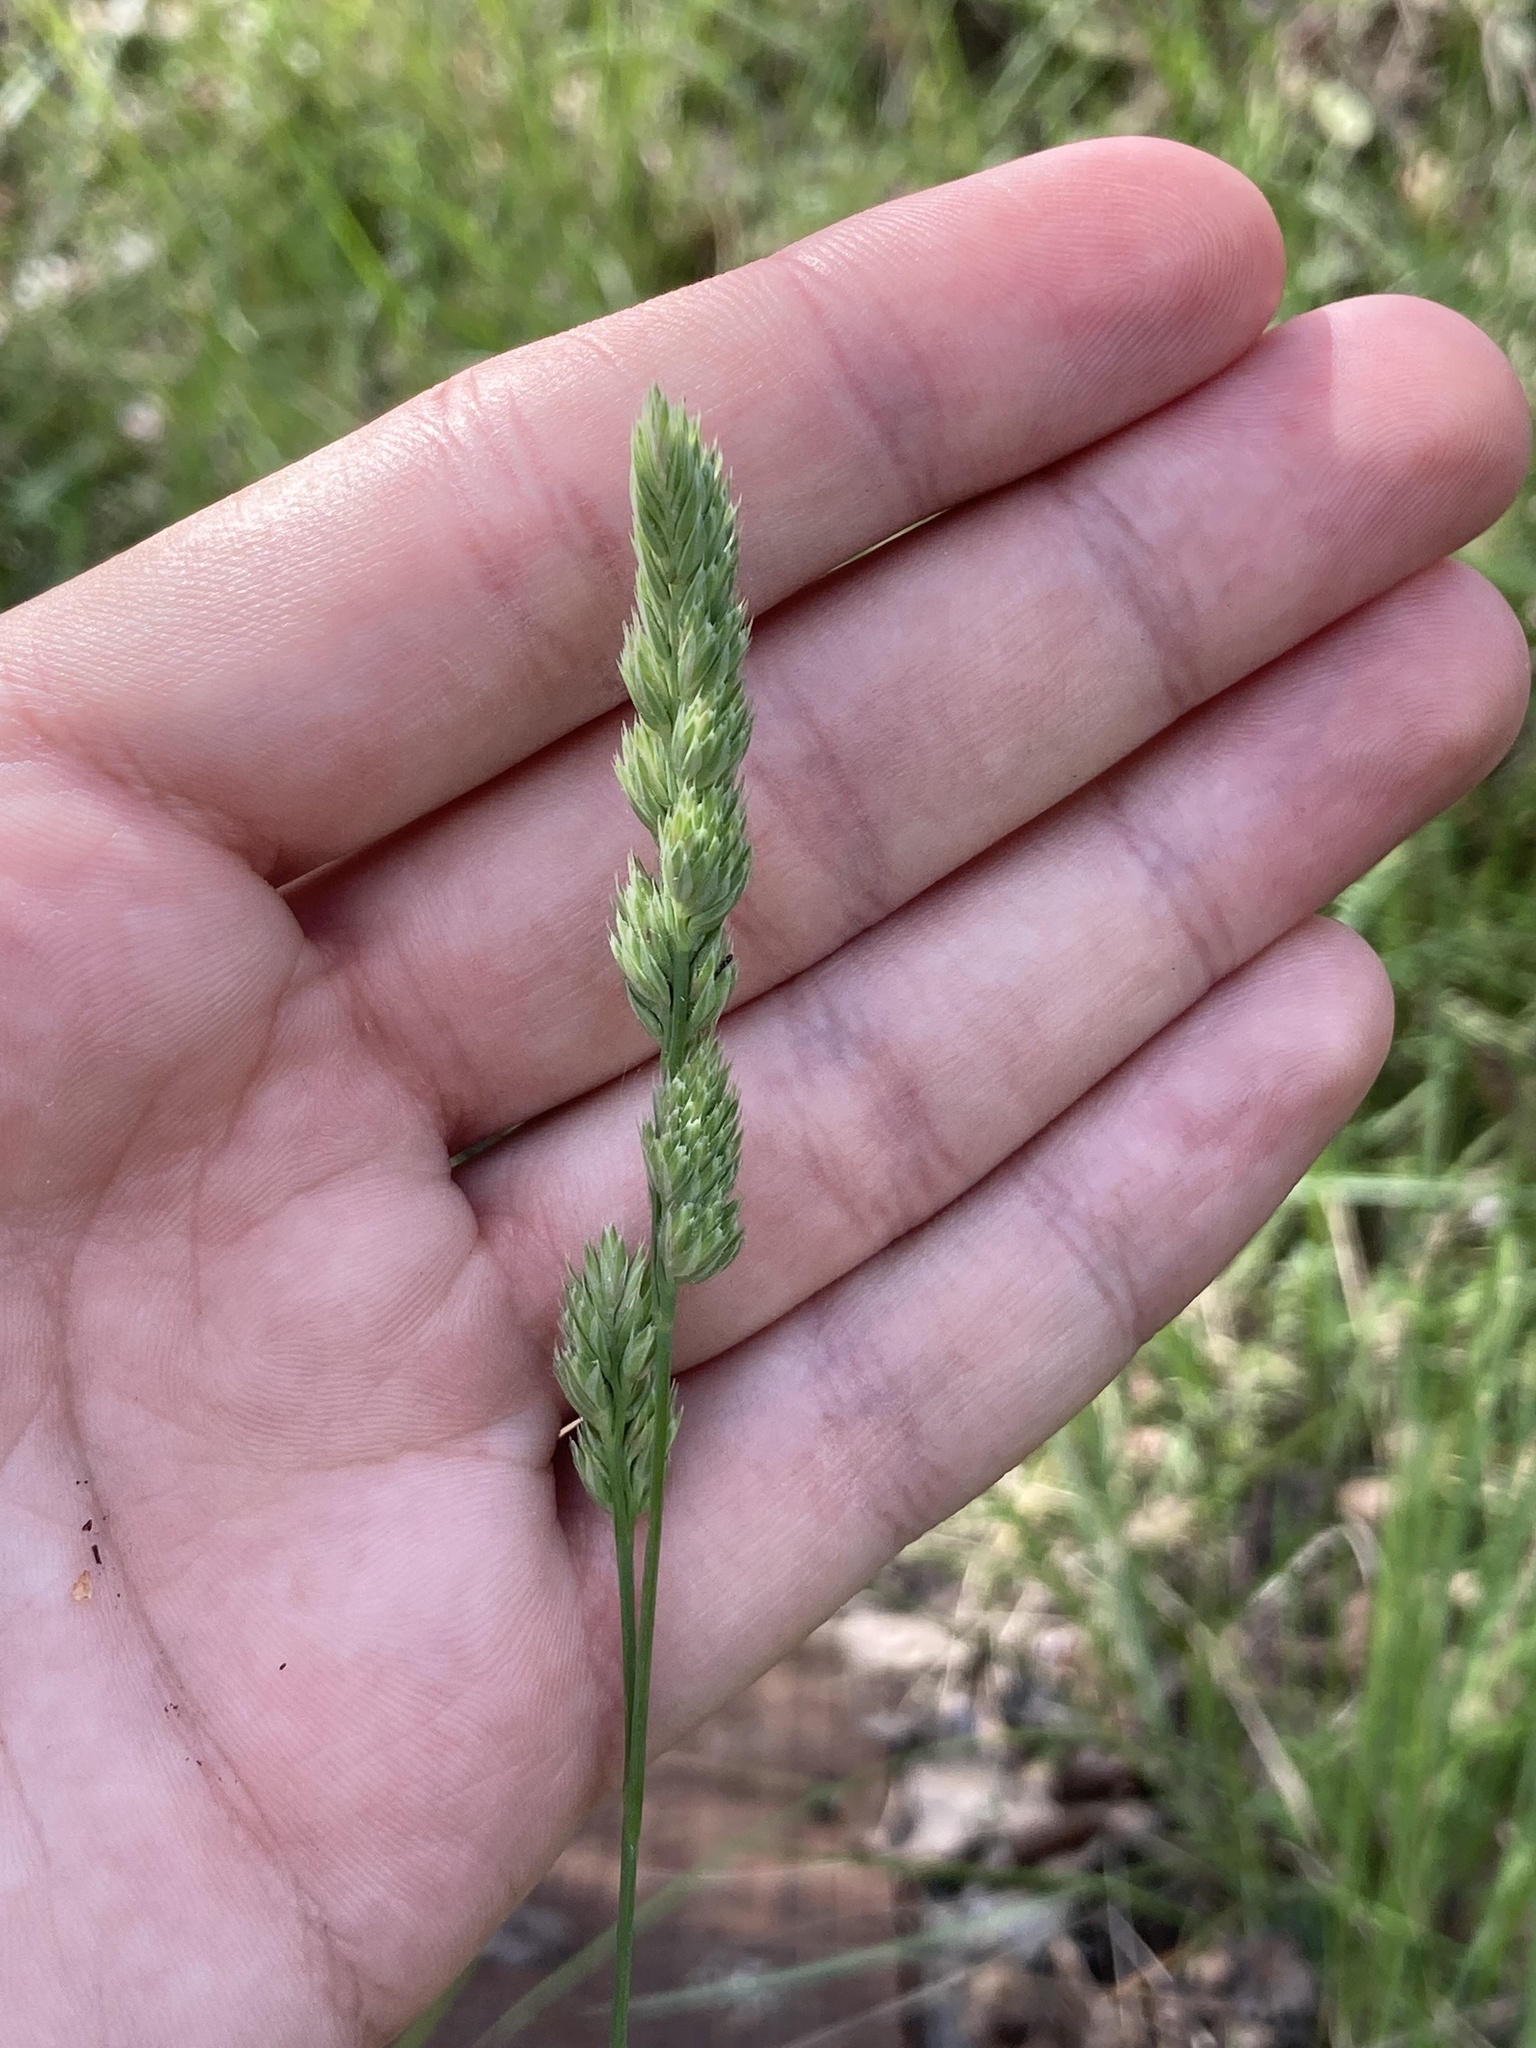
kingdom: Plantae
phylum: Tracheophyta
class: Liliopsida
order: Poales
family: Poaceae
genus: Dactylis
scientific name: Dactylis glomerata
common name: Orchardgrass
